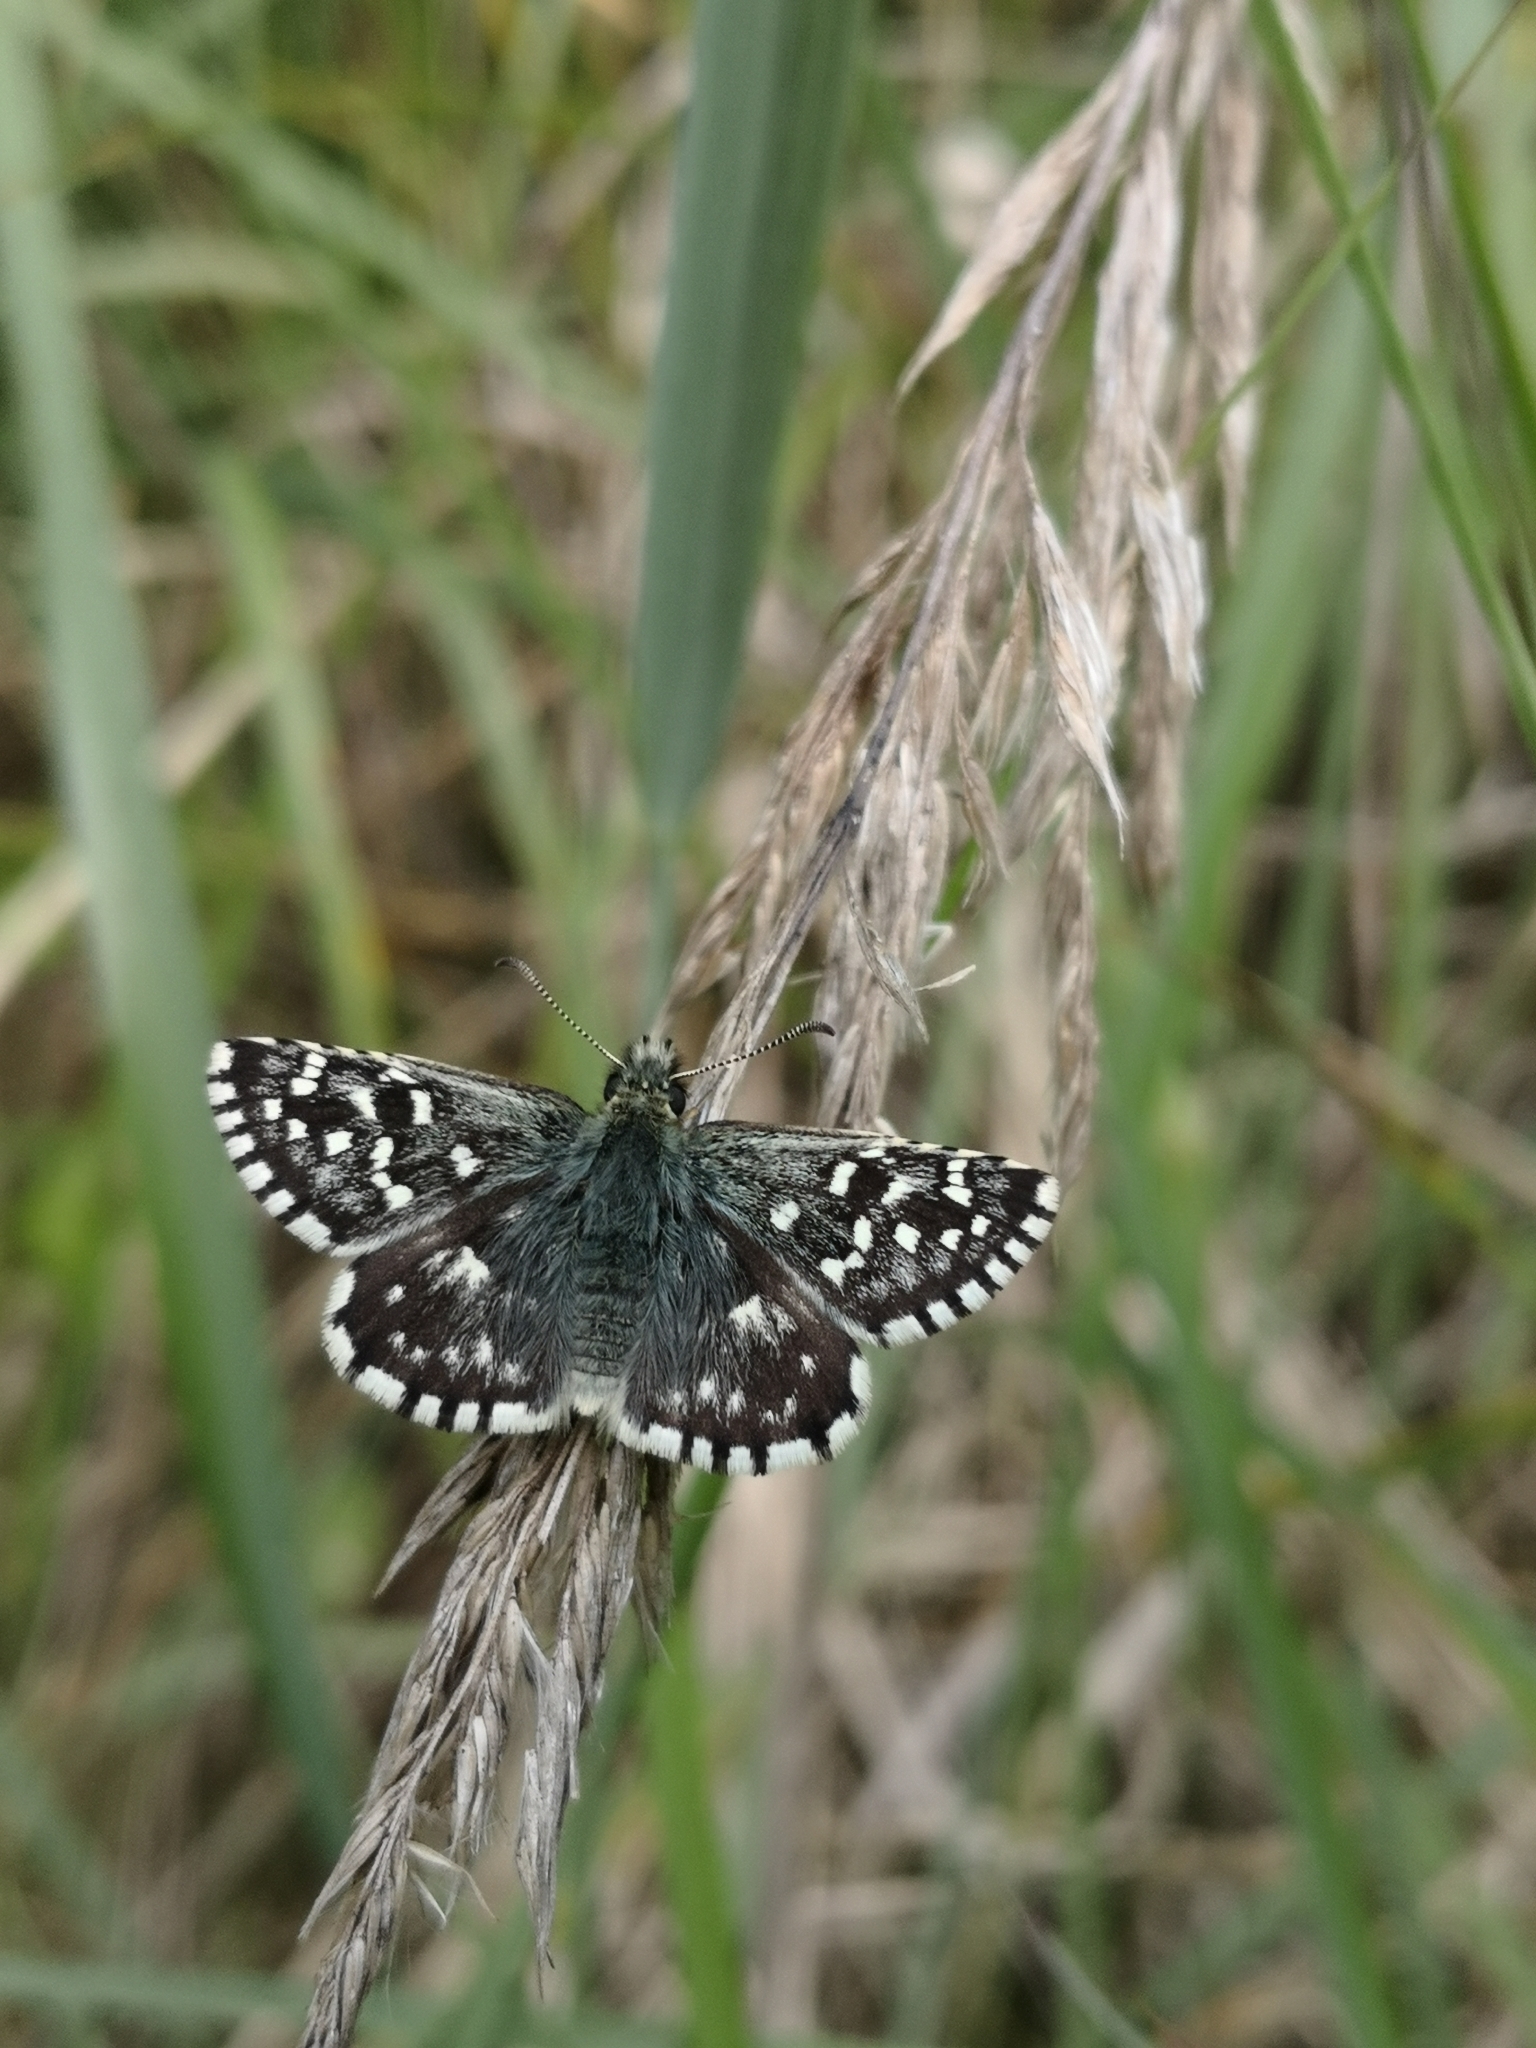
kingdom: Animalia
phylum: Arthropoda
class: Insecta
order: Lepidoptera
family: Hesperiidae
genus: Pyrgus
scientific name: Pyrgus malvae
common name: Grizzled skipper
